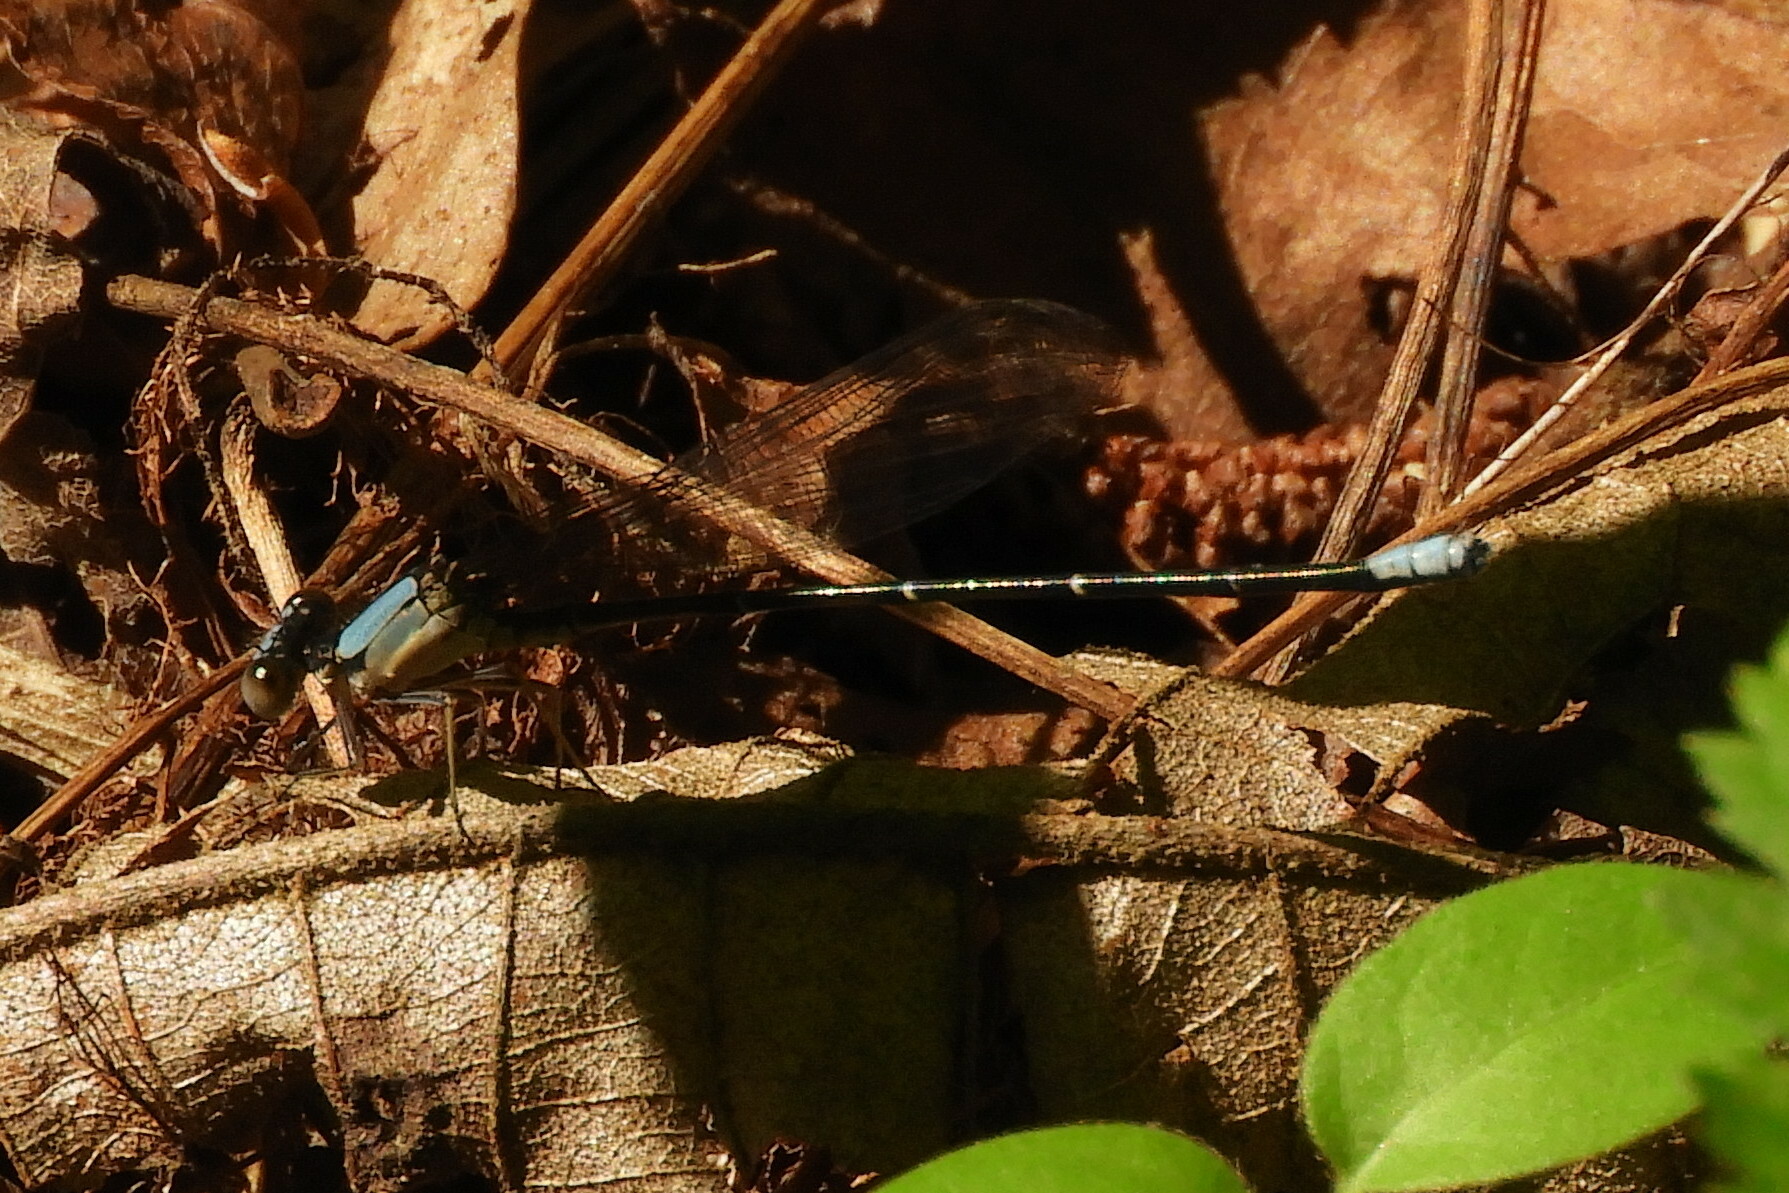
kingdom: Animalia
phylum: Arthropoda
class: Insecta
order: Odonata
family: Coenagrionidae
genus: Argia
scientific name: Argia apicalis
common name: Blue-fronted dancer
